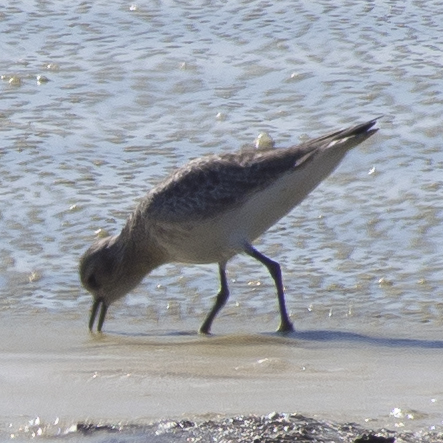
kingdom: Animalia
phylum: Chordata
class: Aves
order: Charadriiformes
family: Scolopacidae
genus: Calidris
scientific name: Calidris minutilla
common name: Least sandpiper
